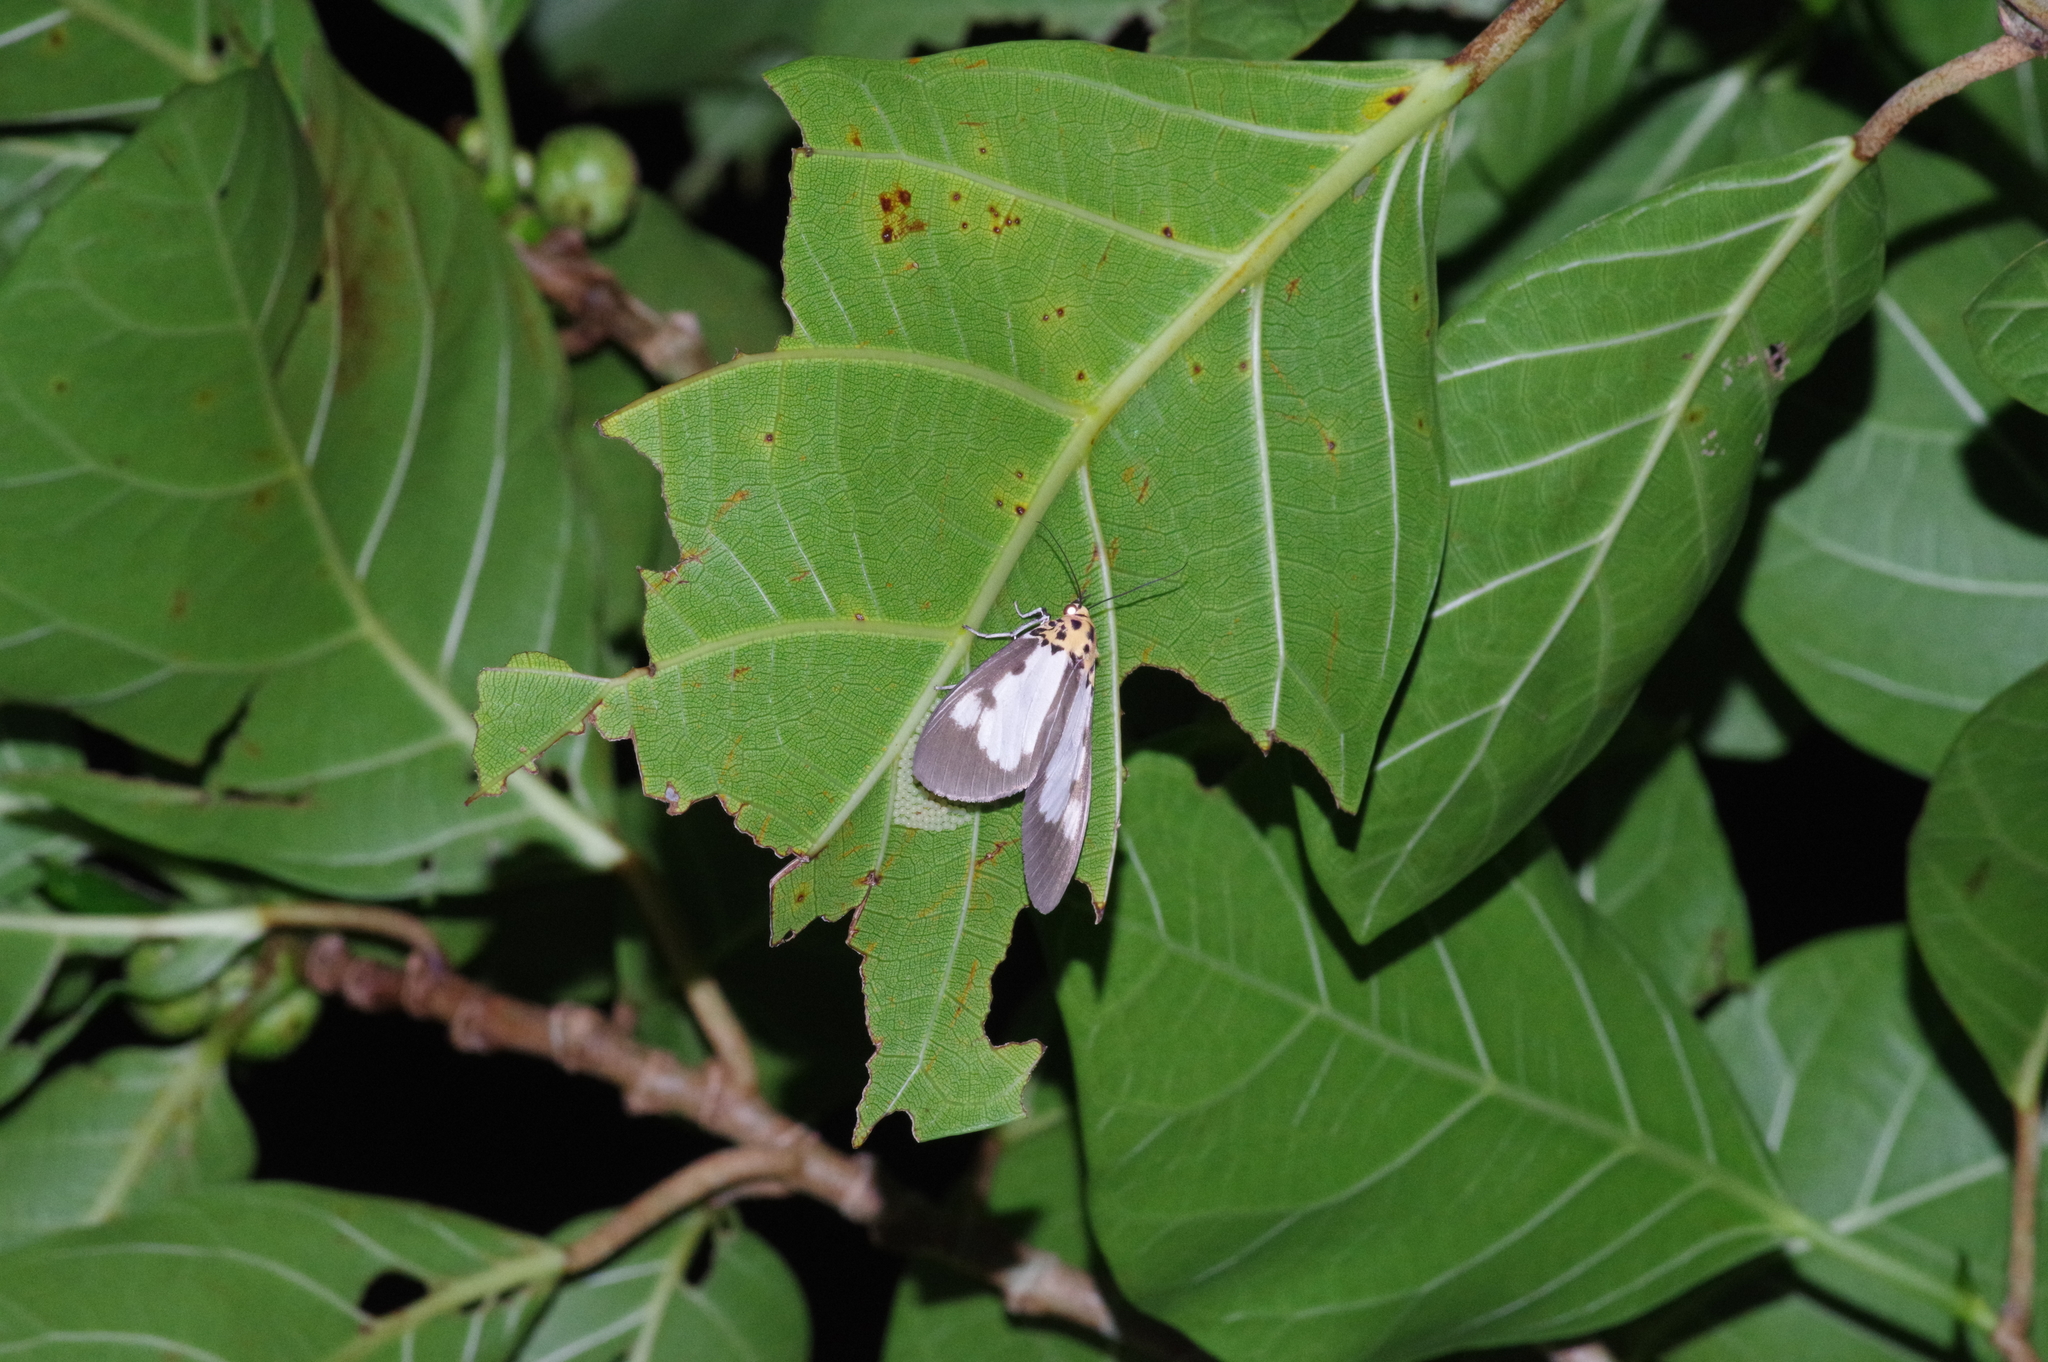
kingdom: Animalia
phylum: Arthropoda
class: Insecta
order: Lepidoptera
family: Erebidae
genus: Asota
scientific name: Asota plana
